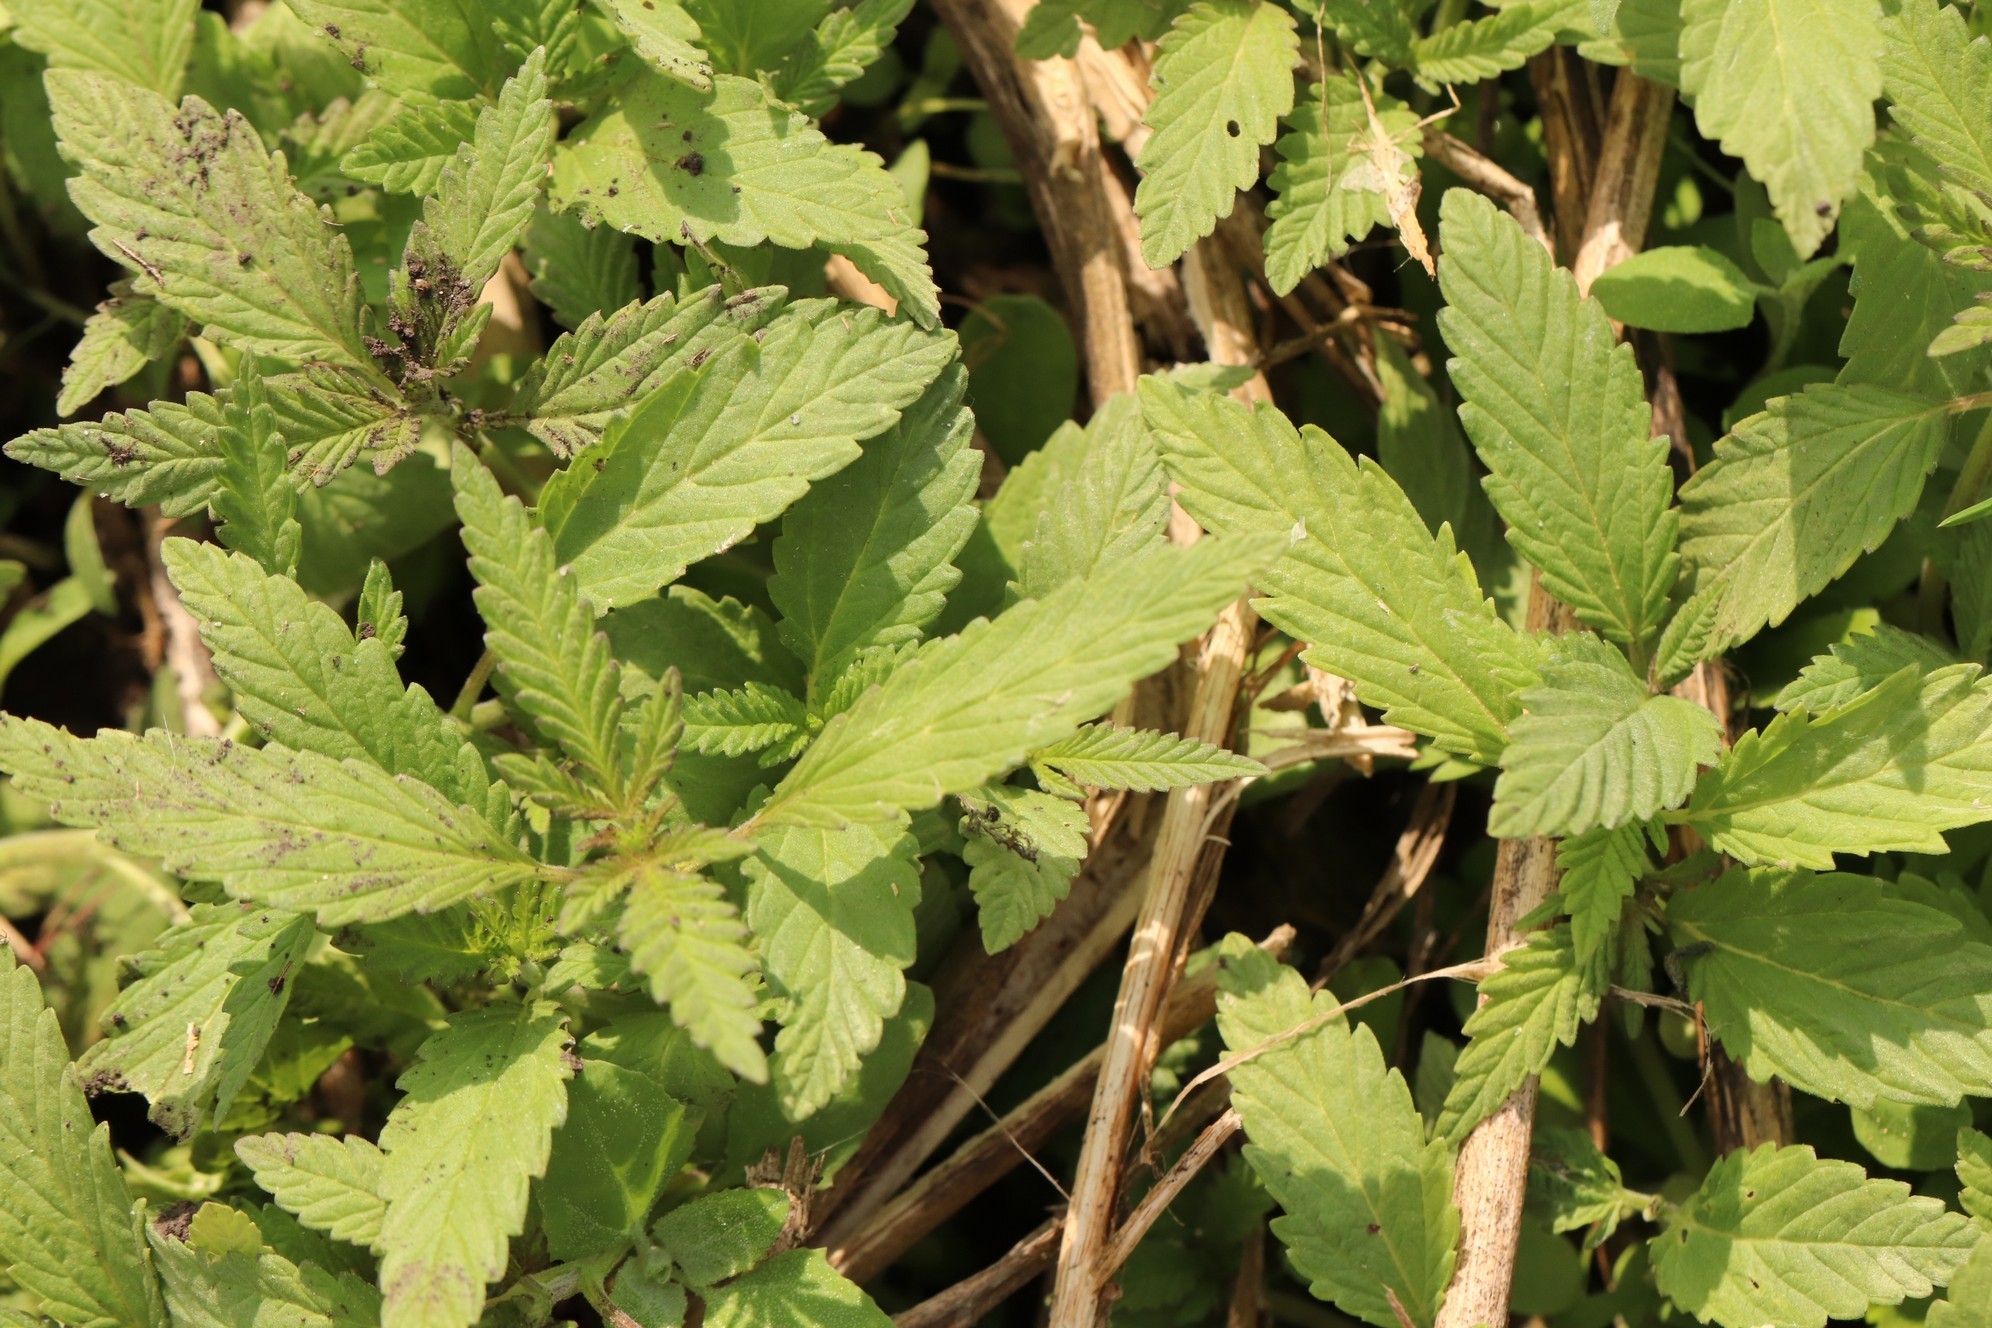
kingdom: Plantae
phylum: Tracheophyta
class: Magnoliopsida
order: Lamiales
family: Lamiaceae
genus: Amethystea
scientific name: Amethystea caerulea
